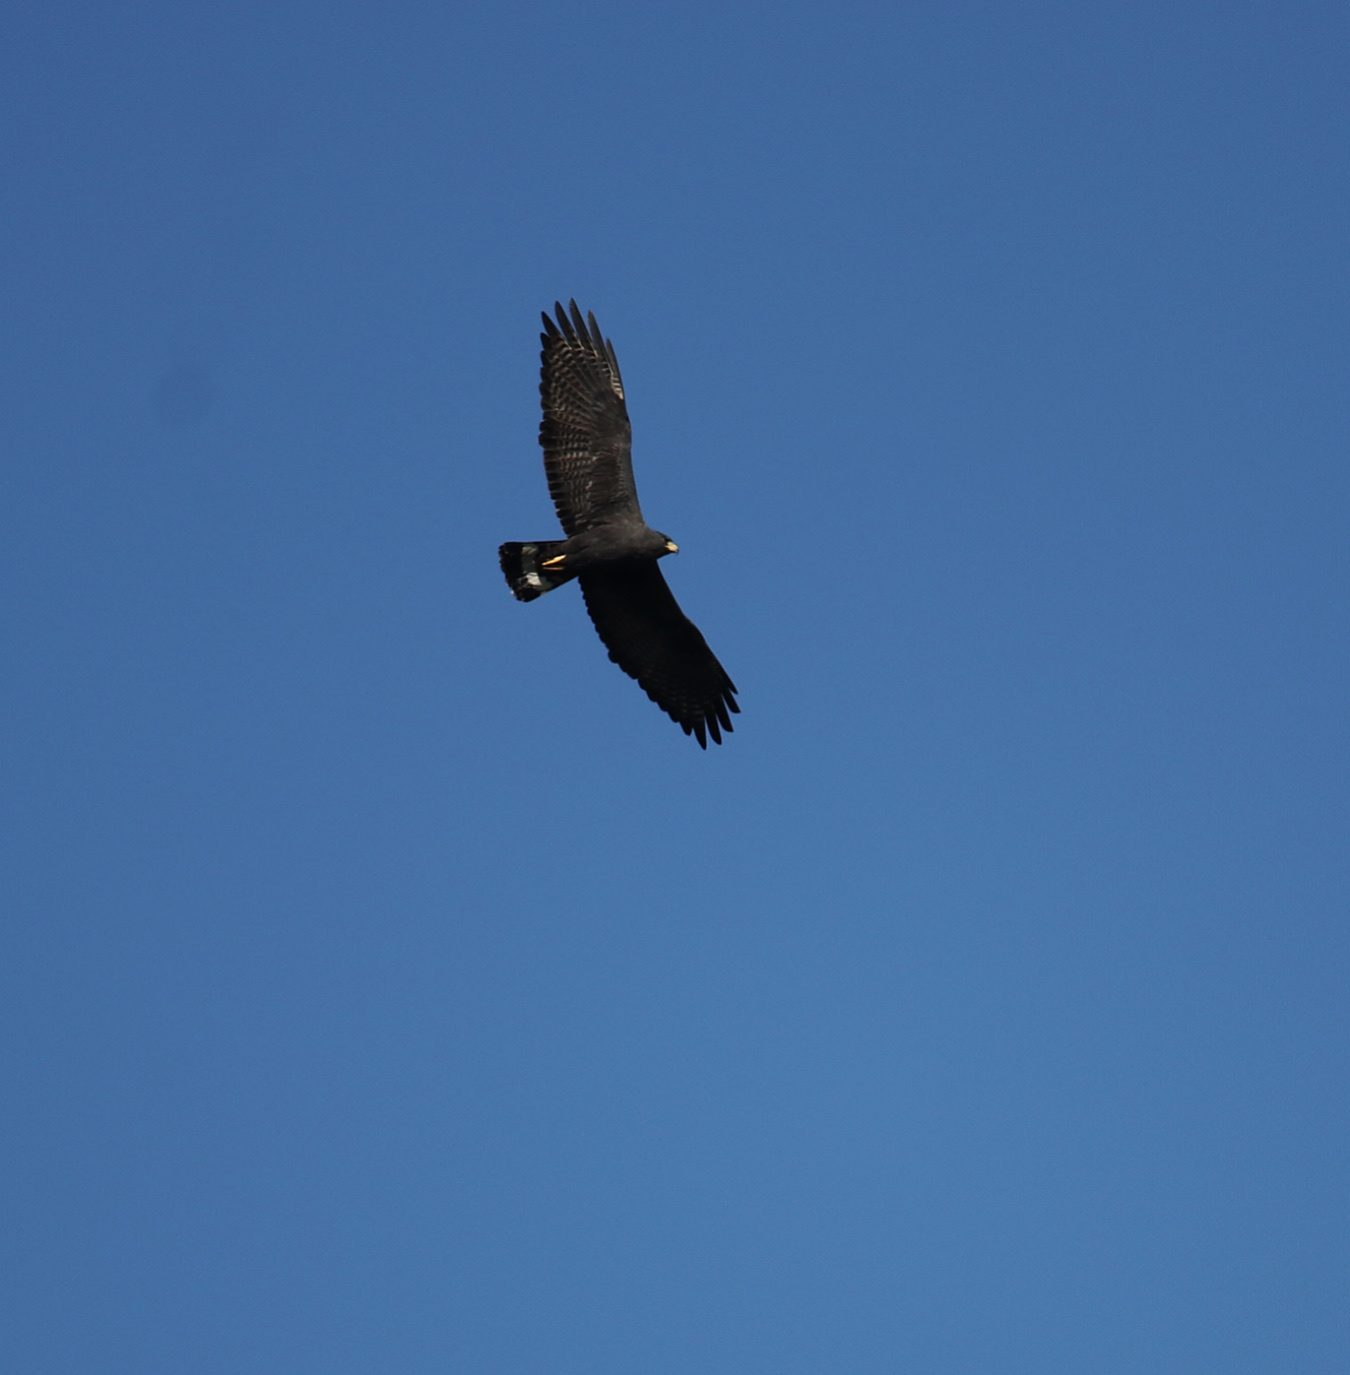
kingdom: Animalia
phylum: Chordata
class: Aves
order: Accipitriformes
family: Accipitridae
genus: Buteo
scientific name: Buteo albonotatus
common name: Zone-tailed hawk
